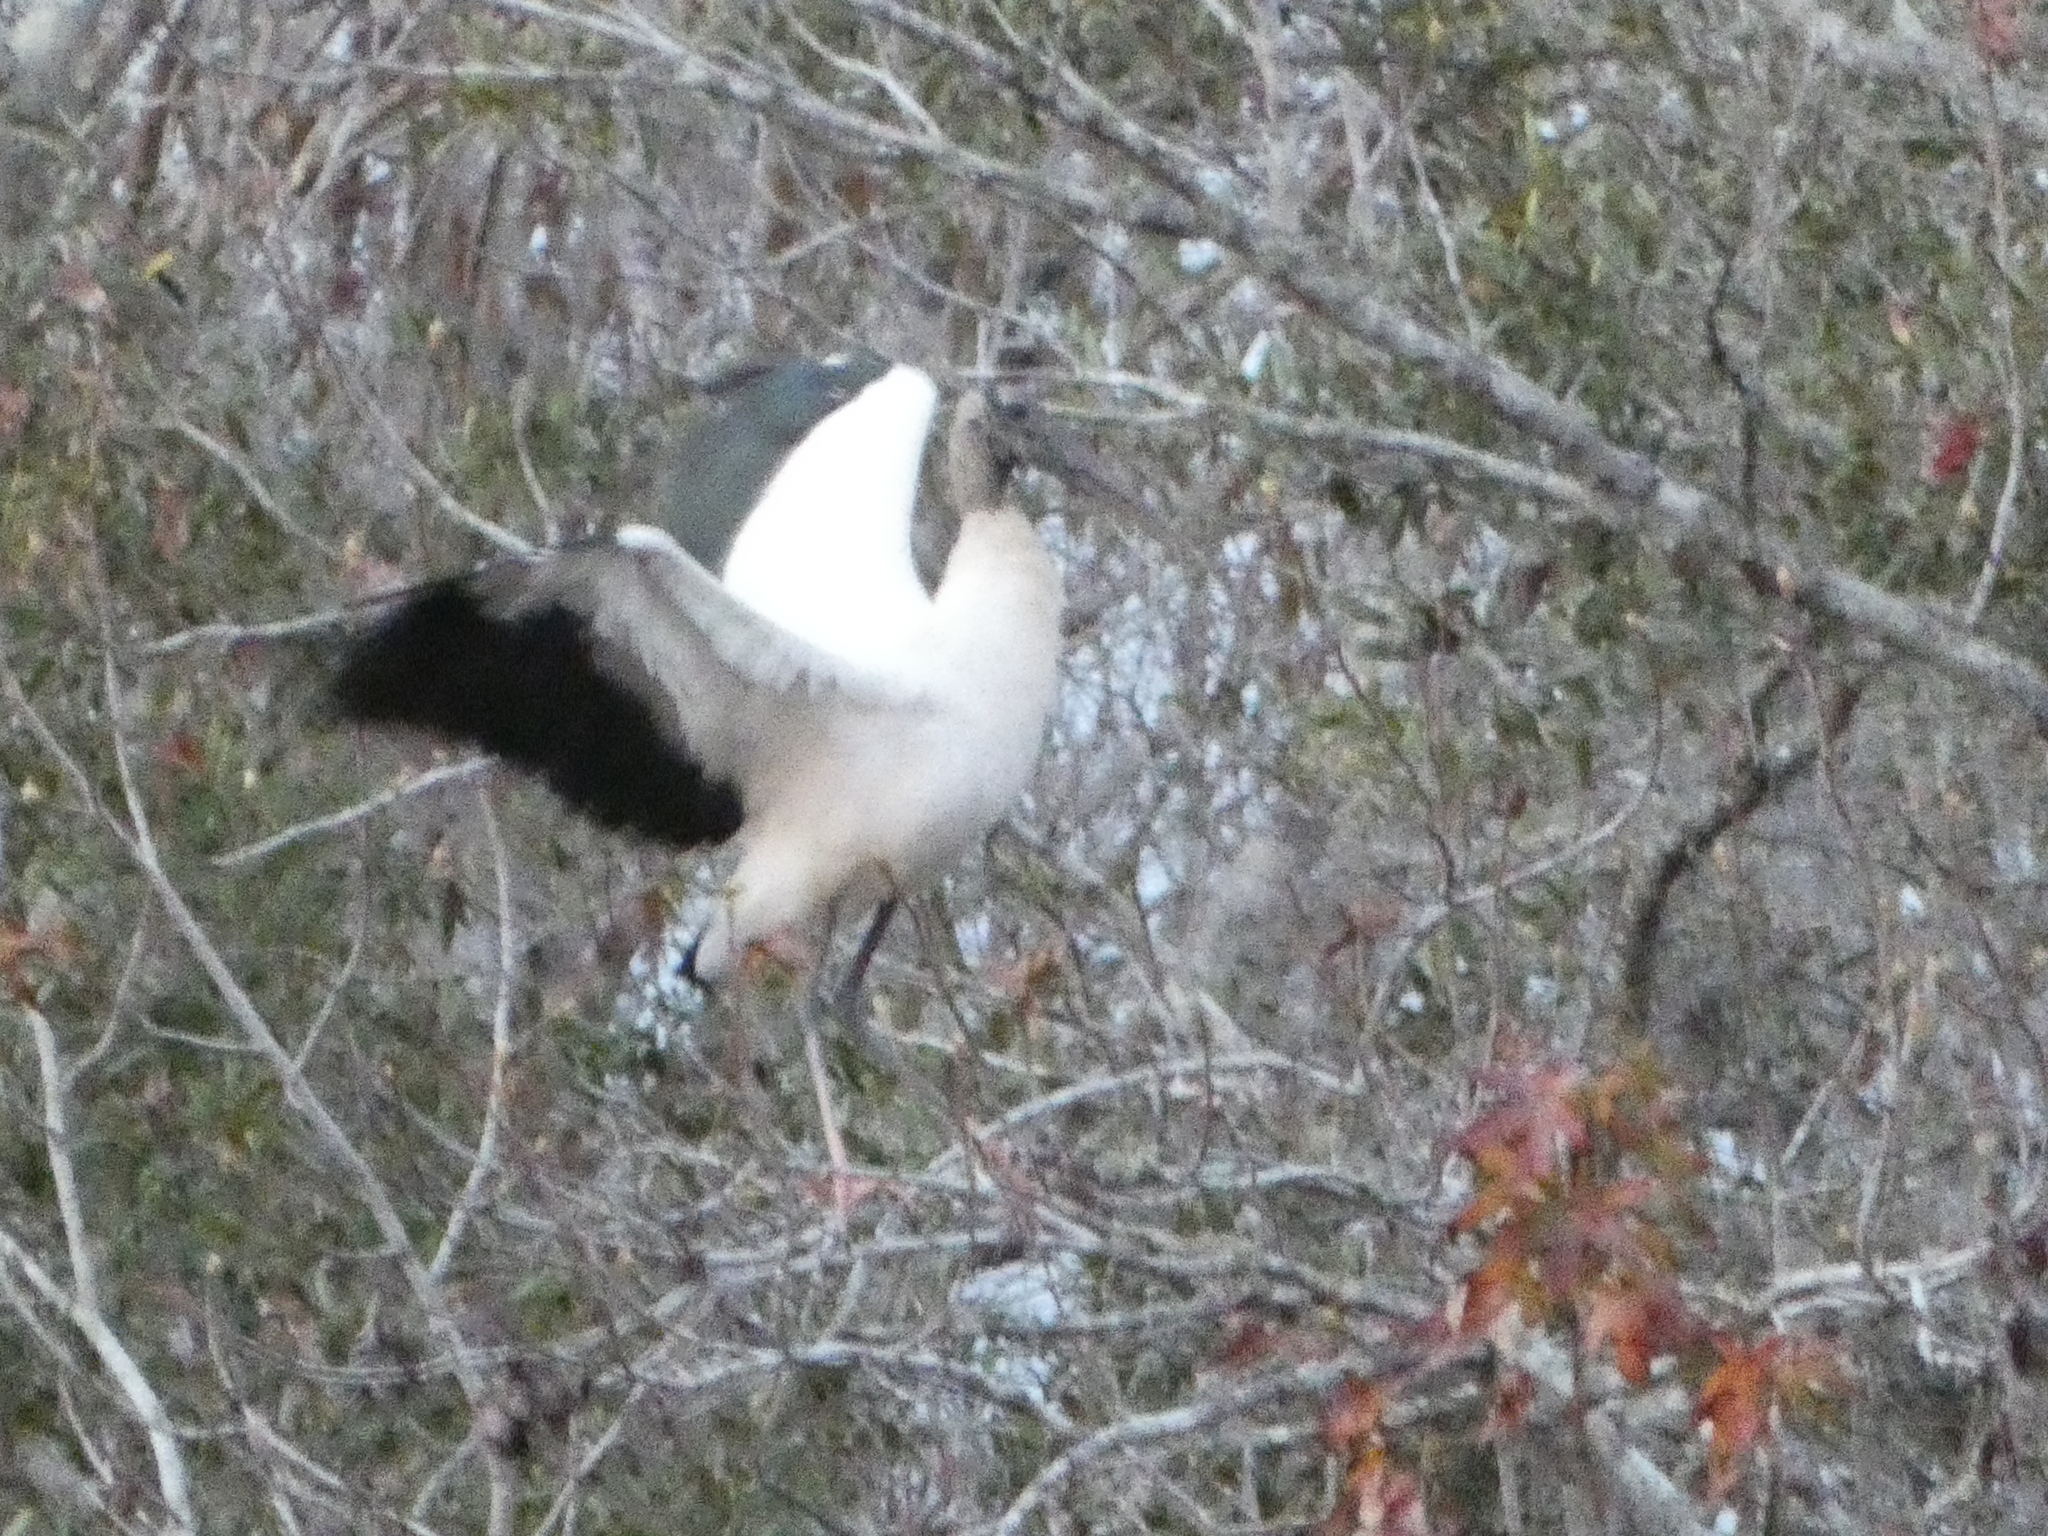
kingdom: Animalia
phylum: Chordata
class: Aves
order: Ciconiiformes
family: Ciconiidae
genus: Mycteria
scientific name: Mycteria americana
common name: Wood stork
